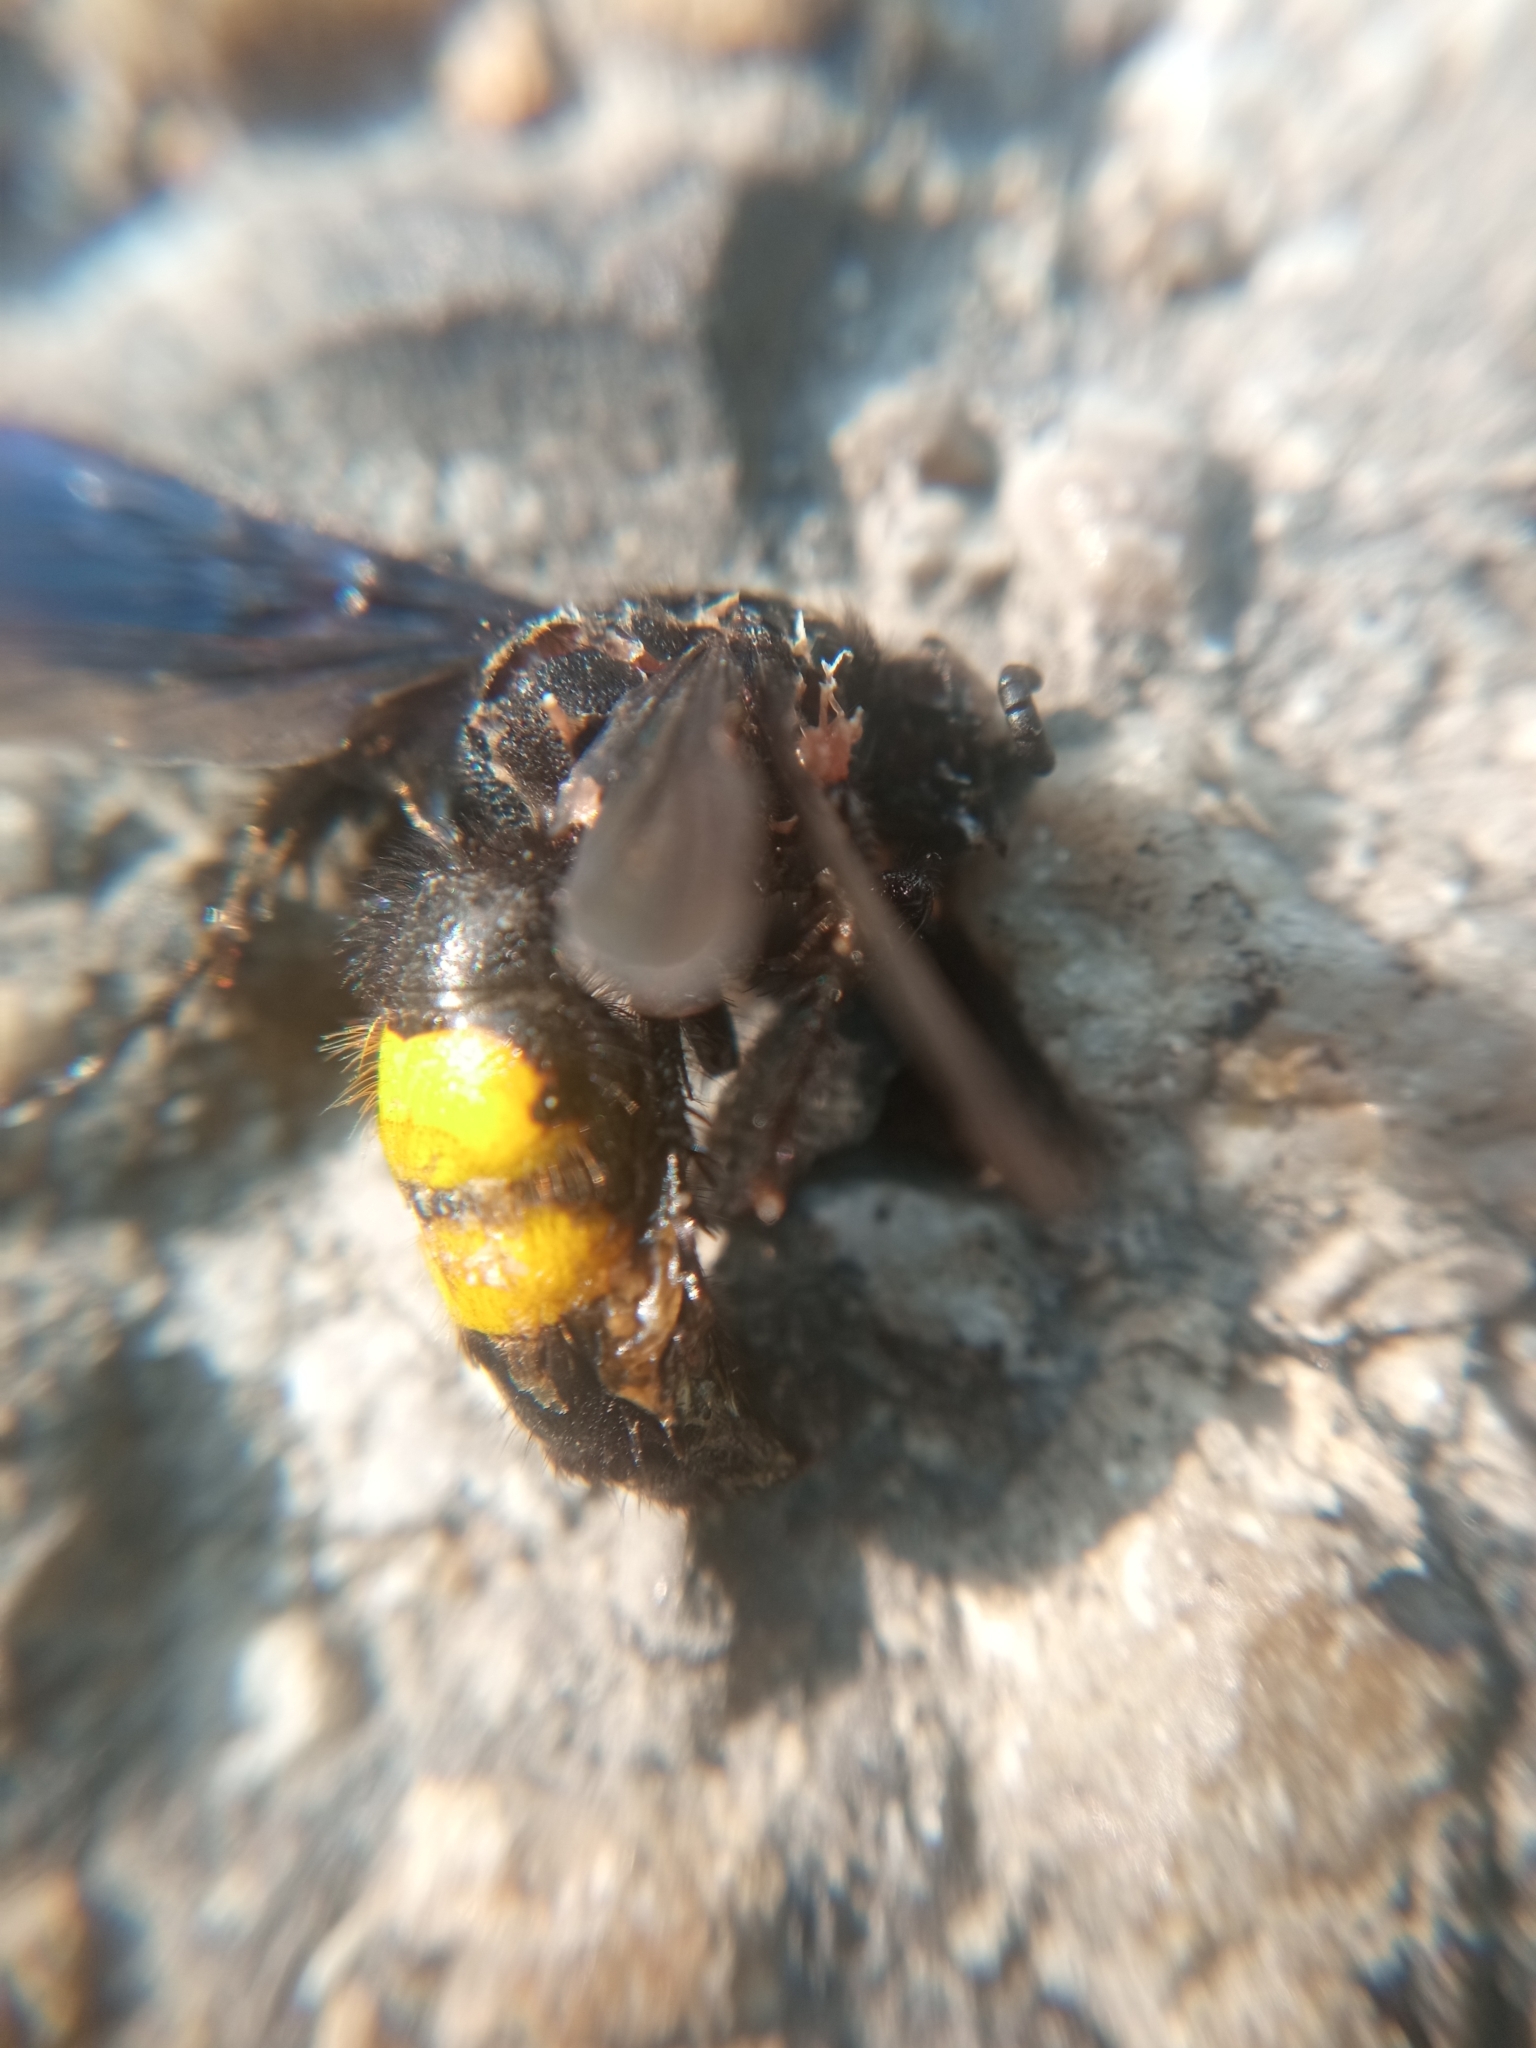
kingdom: Animalia
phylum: Arthropoda
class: Insecta
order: Hymenoptera
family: Scoliidae
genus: Scolia
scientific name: Scolia hirta
